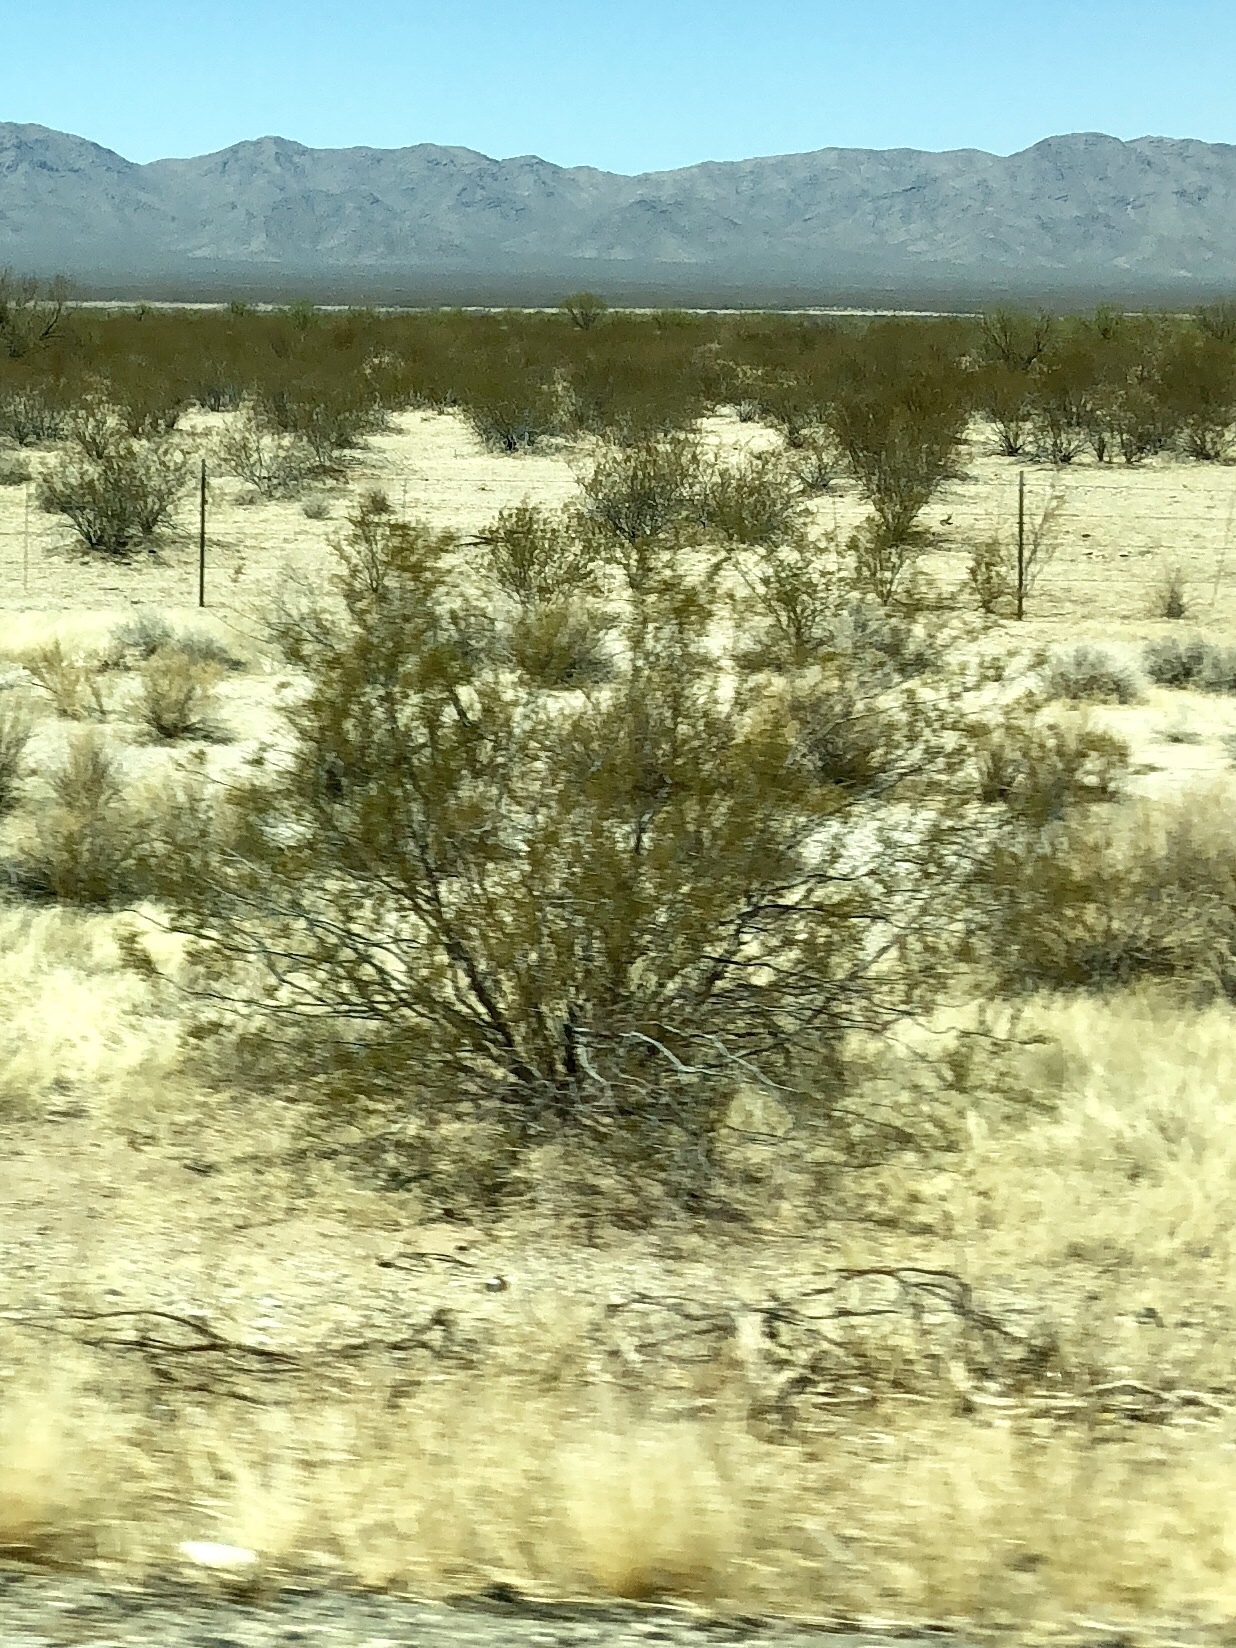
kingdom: Plantae
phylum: Tracheophyta
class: Magnoliopsida
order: Zygophyllales
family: Zygophyllaceae
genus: Larrea
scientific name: Larrea tridentata
